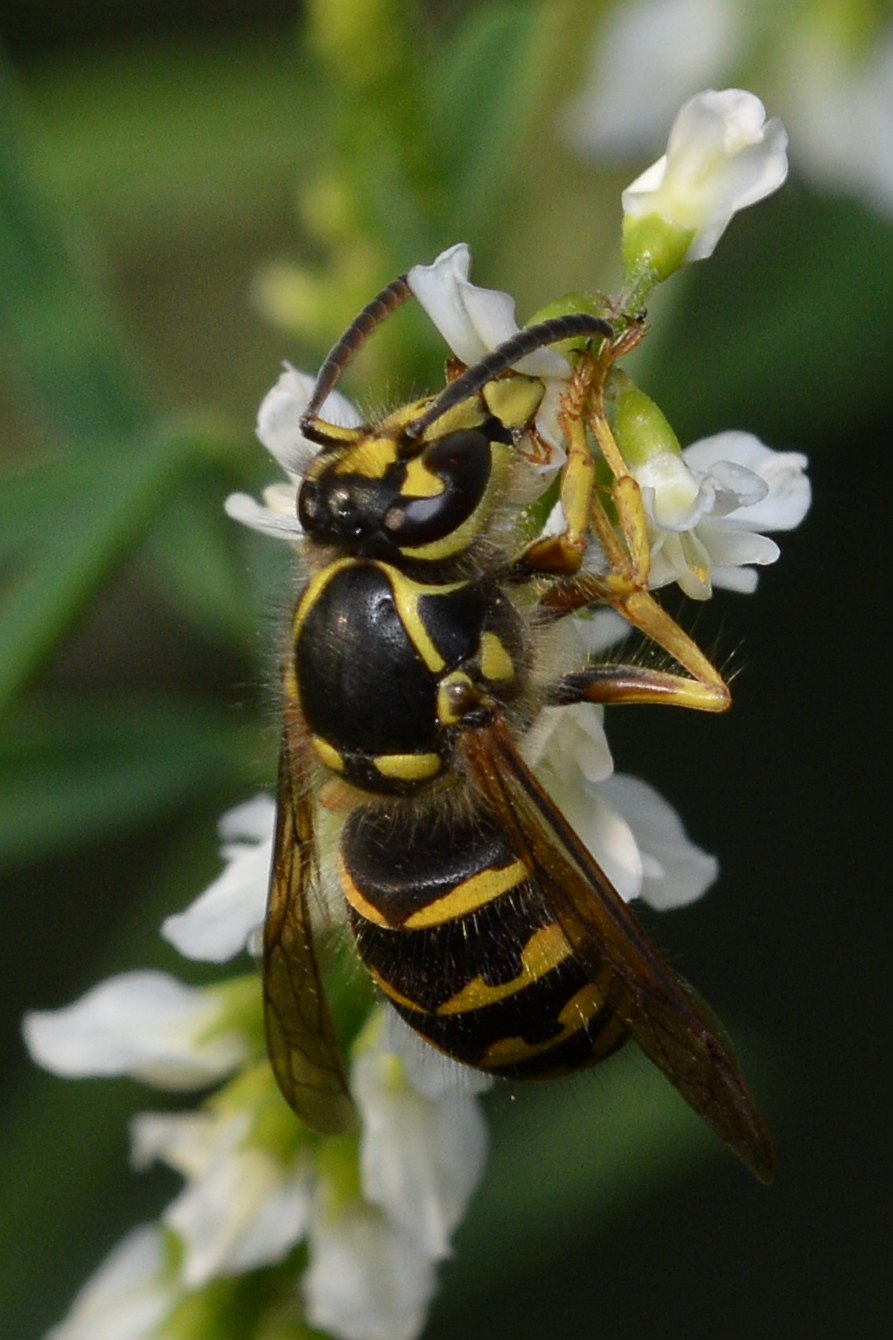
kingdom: Animalia
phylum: Arthropoda
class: Insecta
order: Hymenoptera
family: Vespidae
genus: Dolichovespula
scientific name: Dolichovespula arenaria
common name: Aerial yellowjacket
